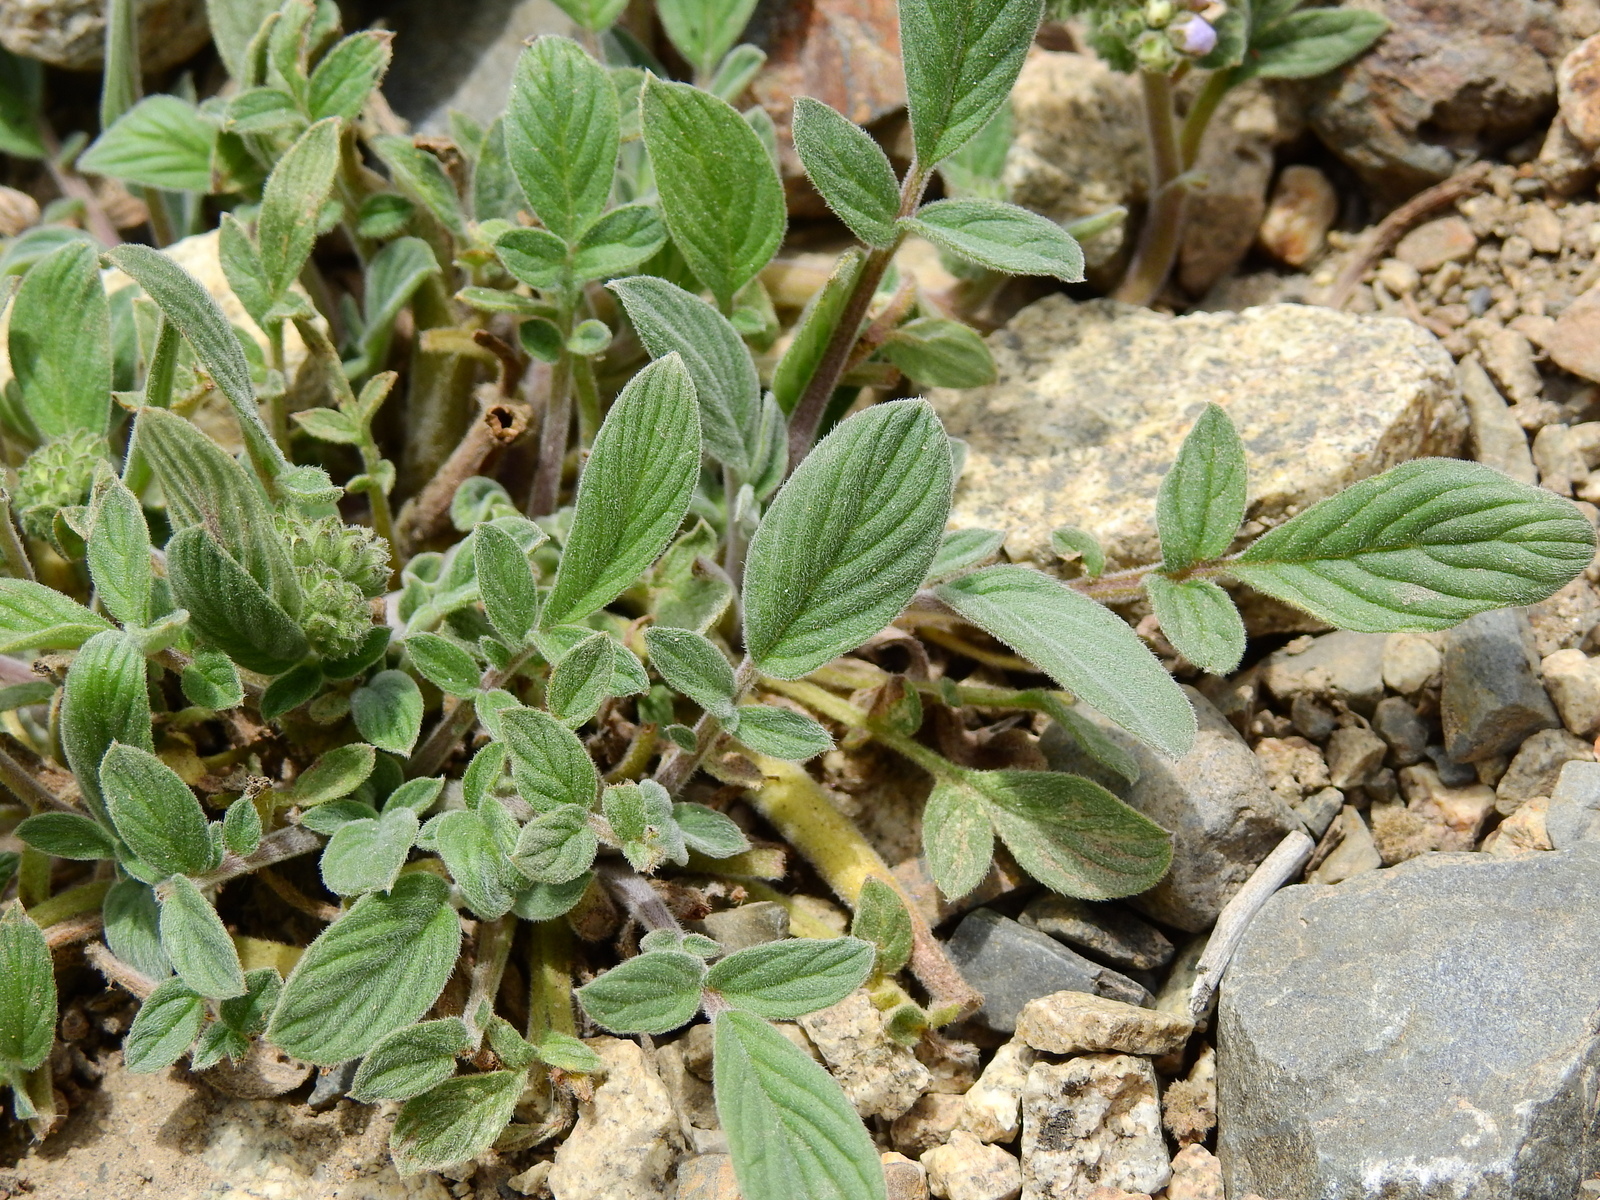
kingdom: Plantae
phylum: Tracheophyta
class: Magnoliopsida
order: Boraginales
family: Hydrophyllaceae
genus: Phacelia
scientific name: Phacelia secunda
